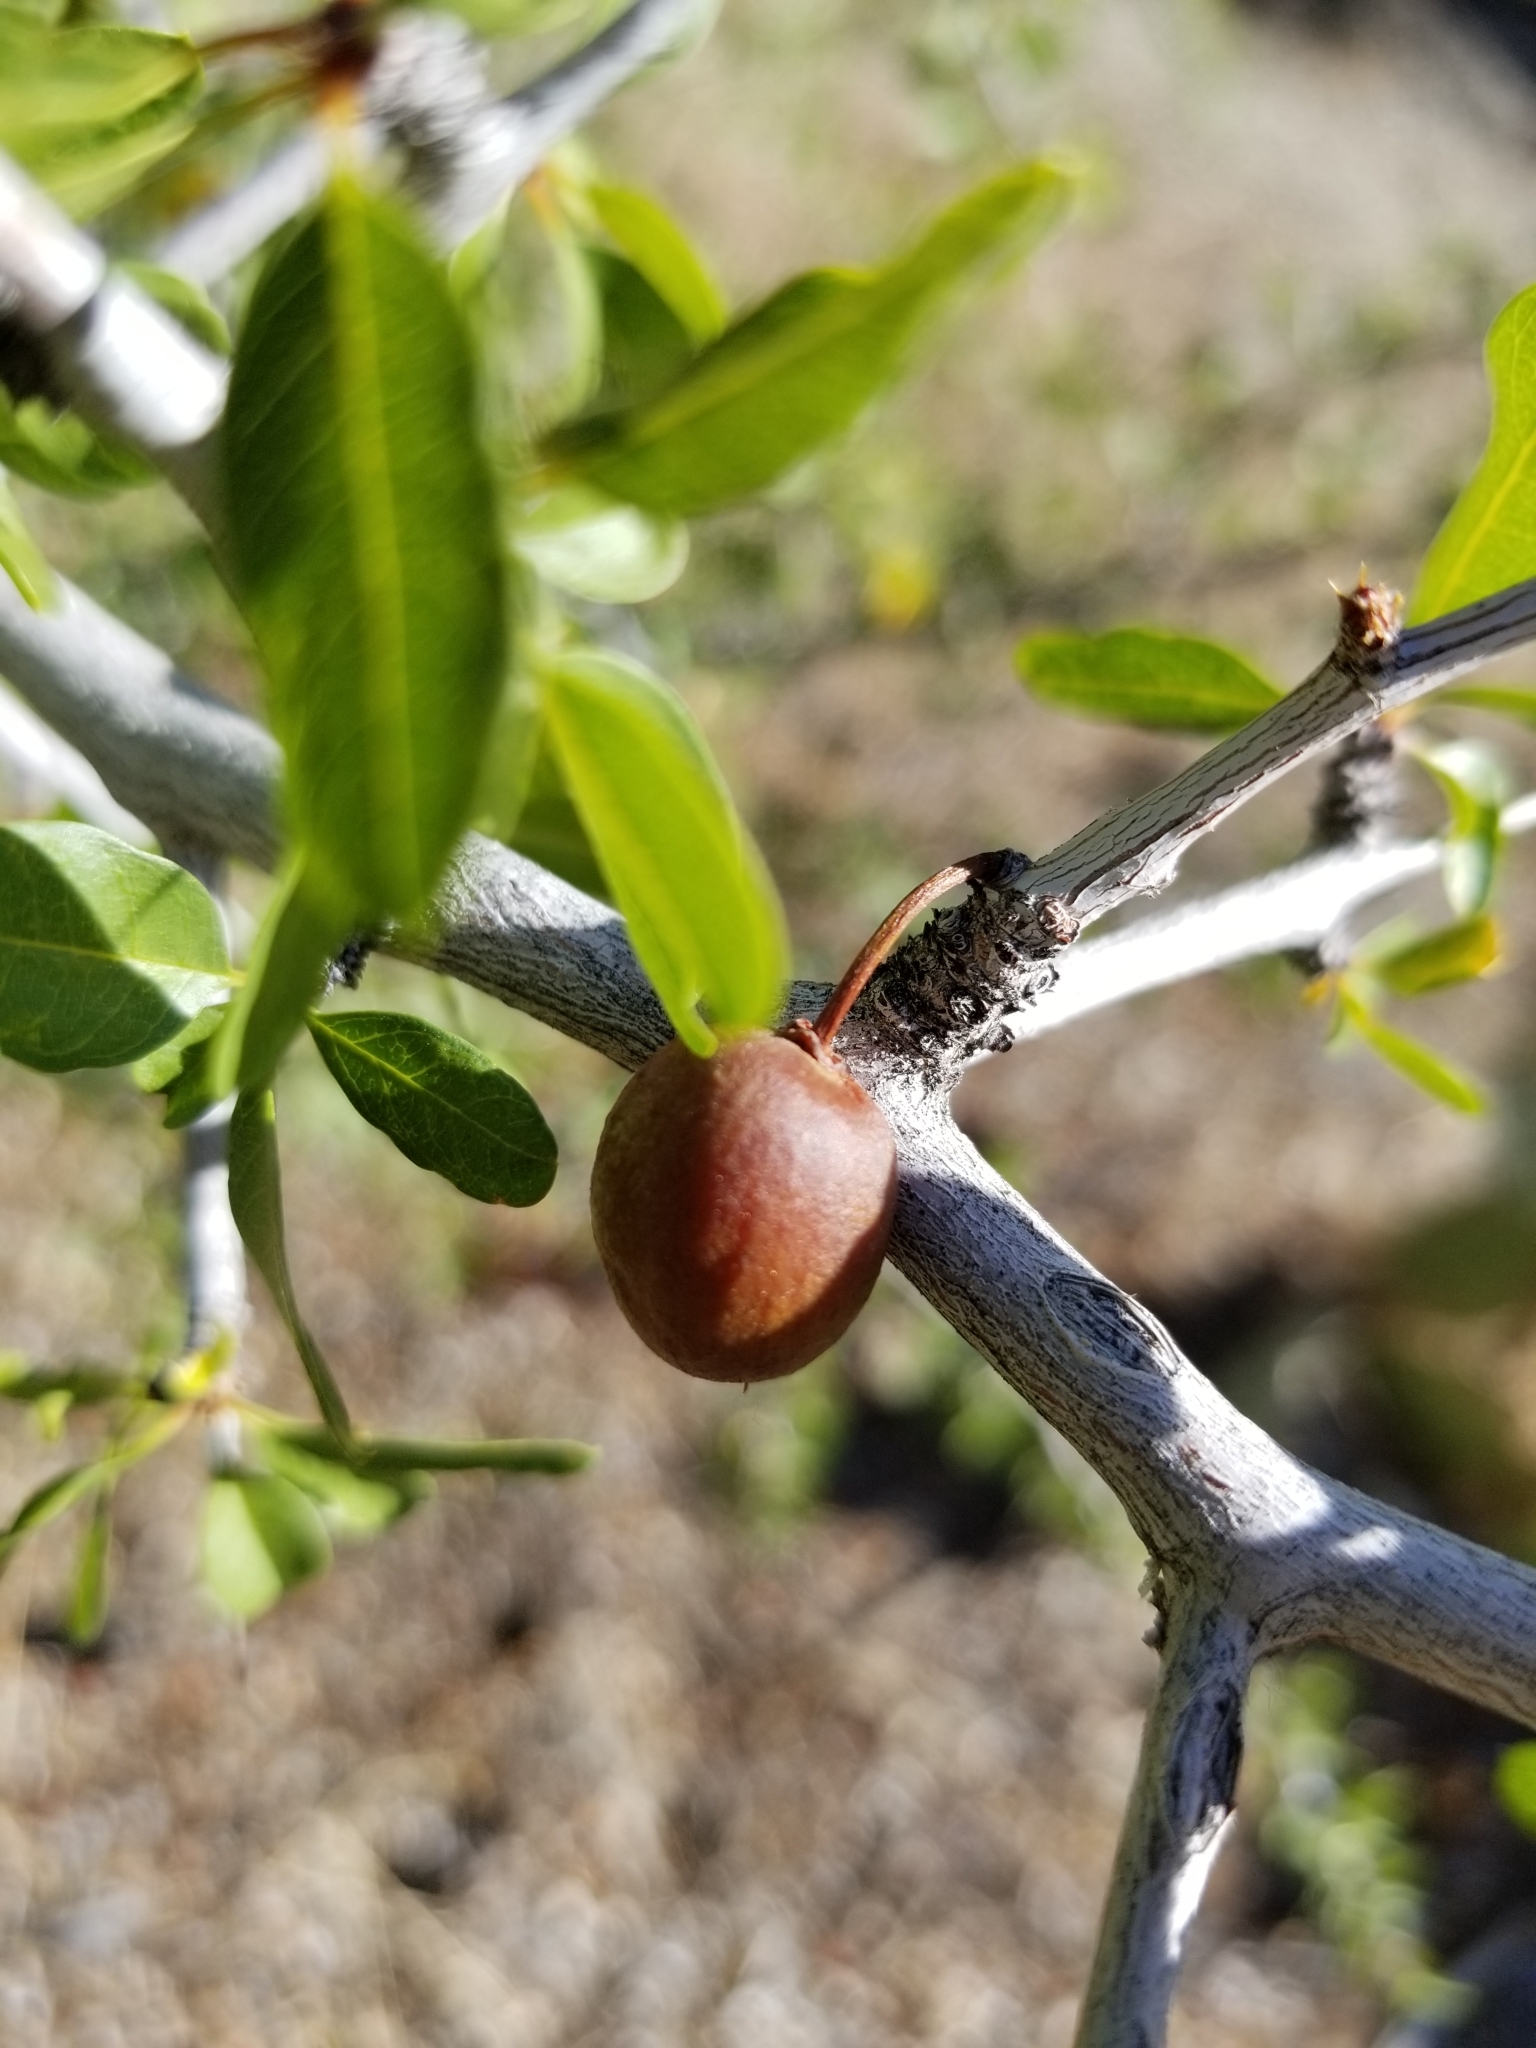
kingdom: Plantae
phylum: Tracheophyta
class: Magnoliopsida
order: Rosales
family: Rhamnaceae
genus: Pseudoziziphus
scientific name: Pseudoziziphus parryi
